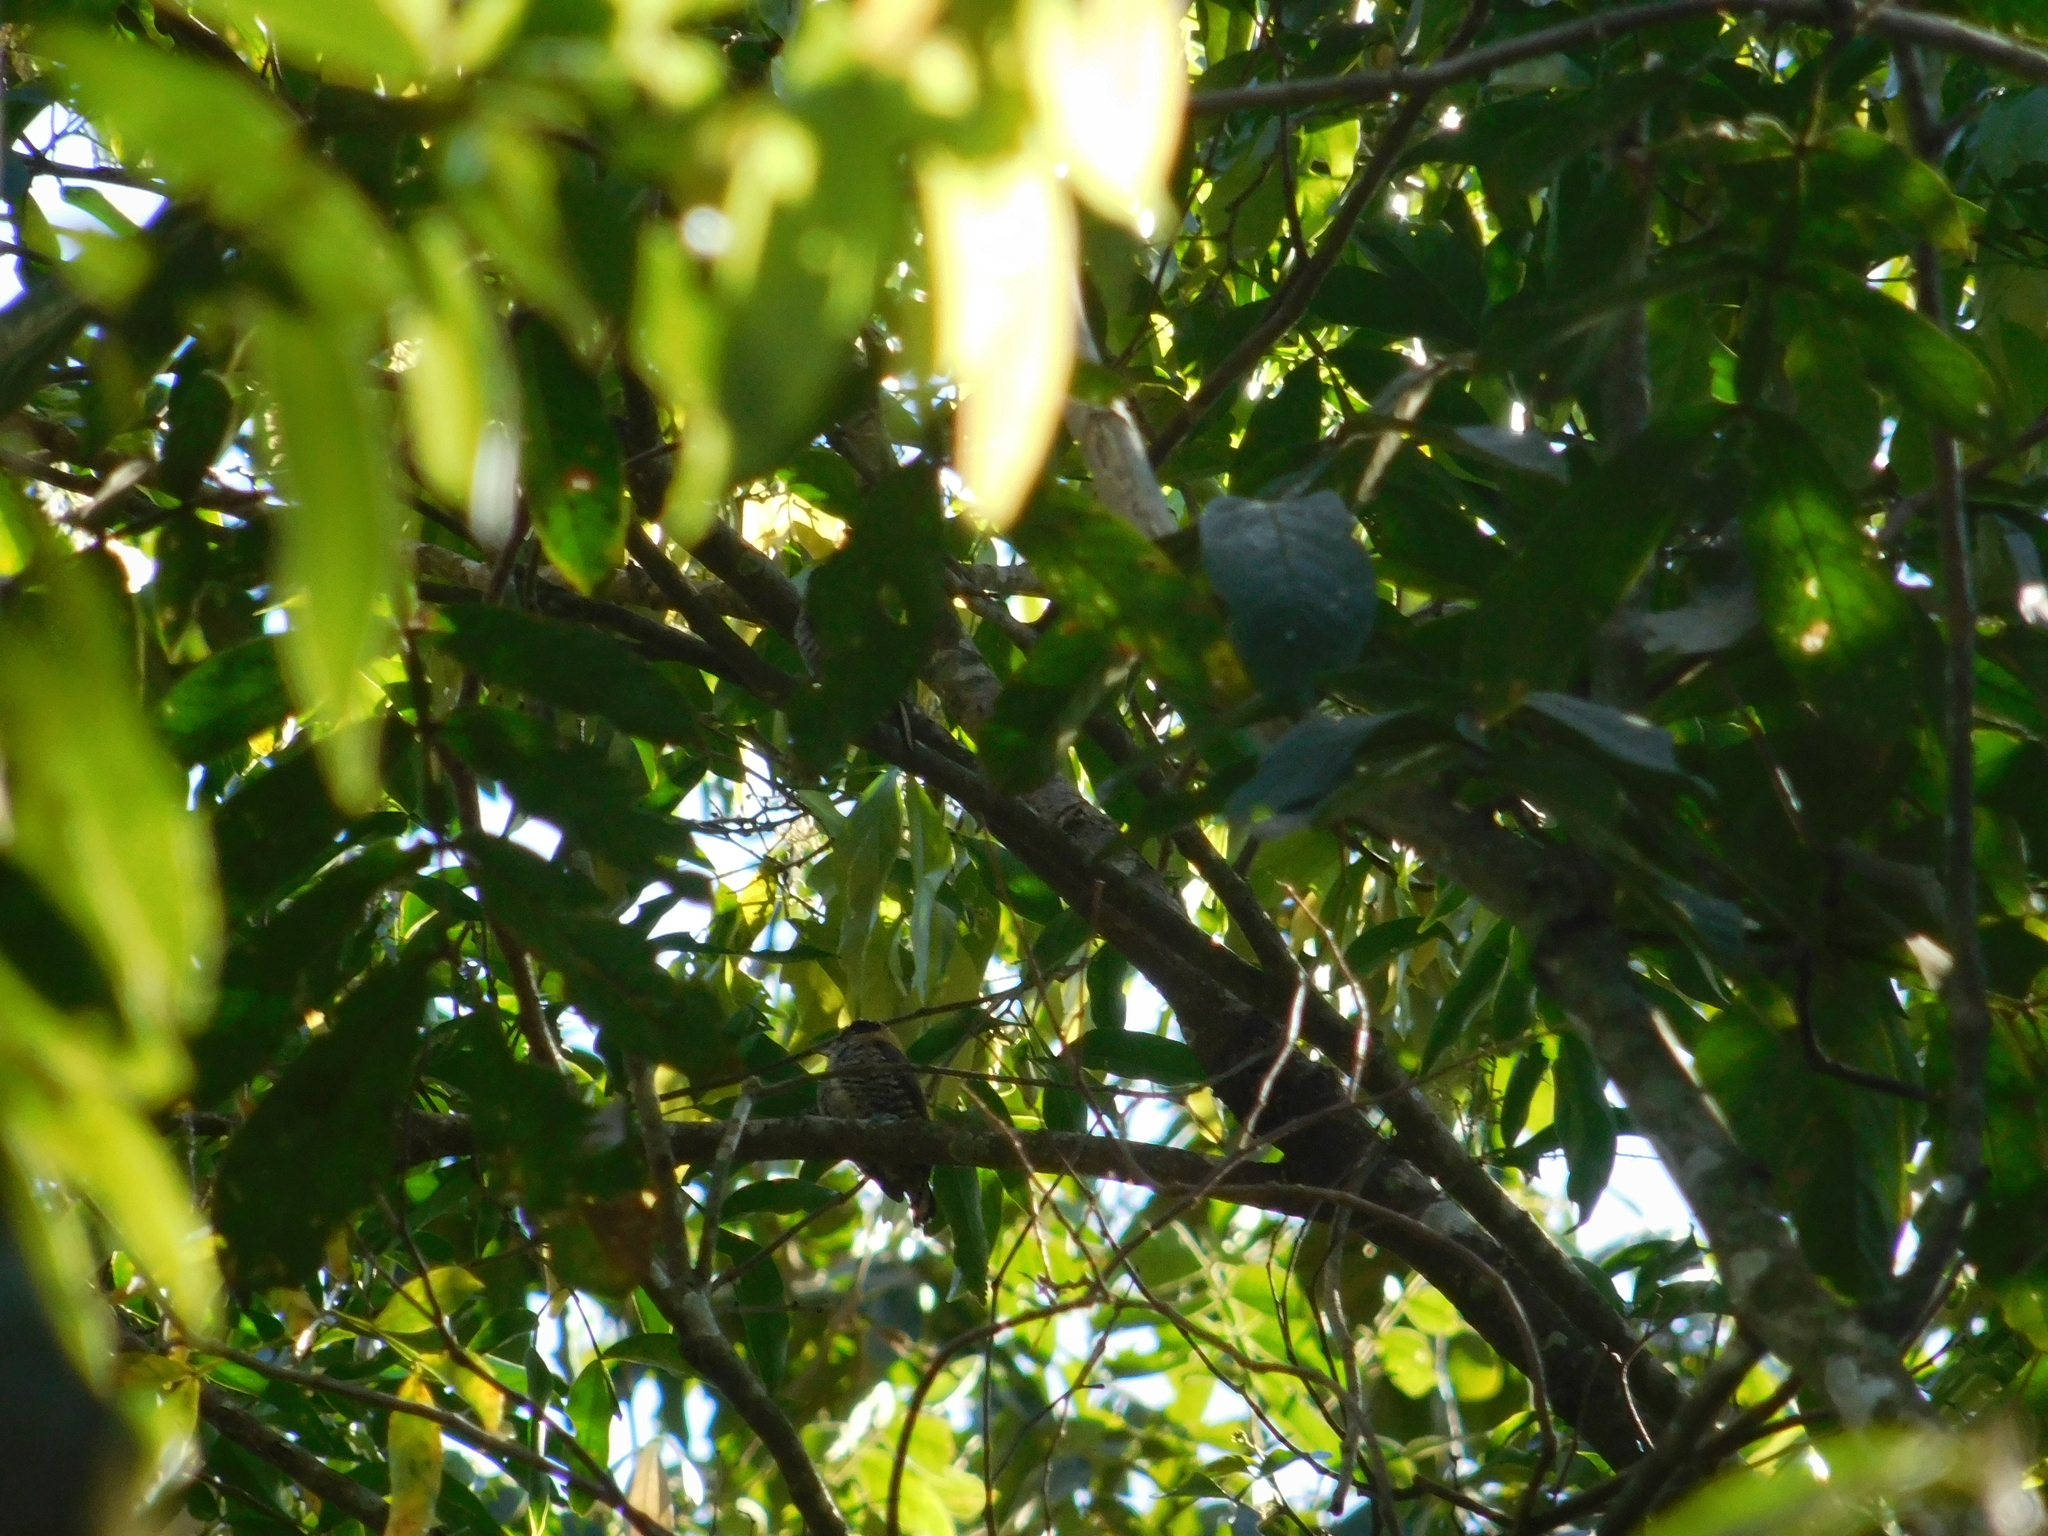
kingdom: Animalia
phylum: Chordata
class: Aves
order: Piciformes
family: Picidae
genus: Picumnus
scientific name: Picumnus temminckii
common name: Ochre-collared piculet
